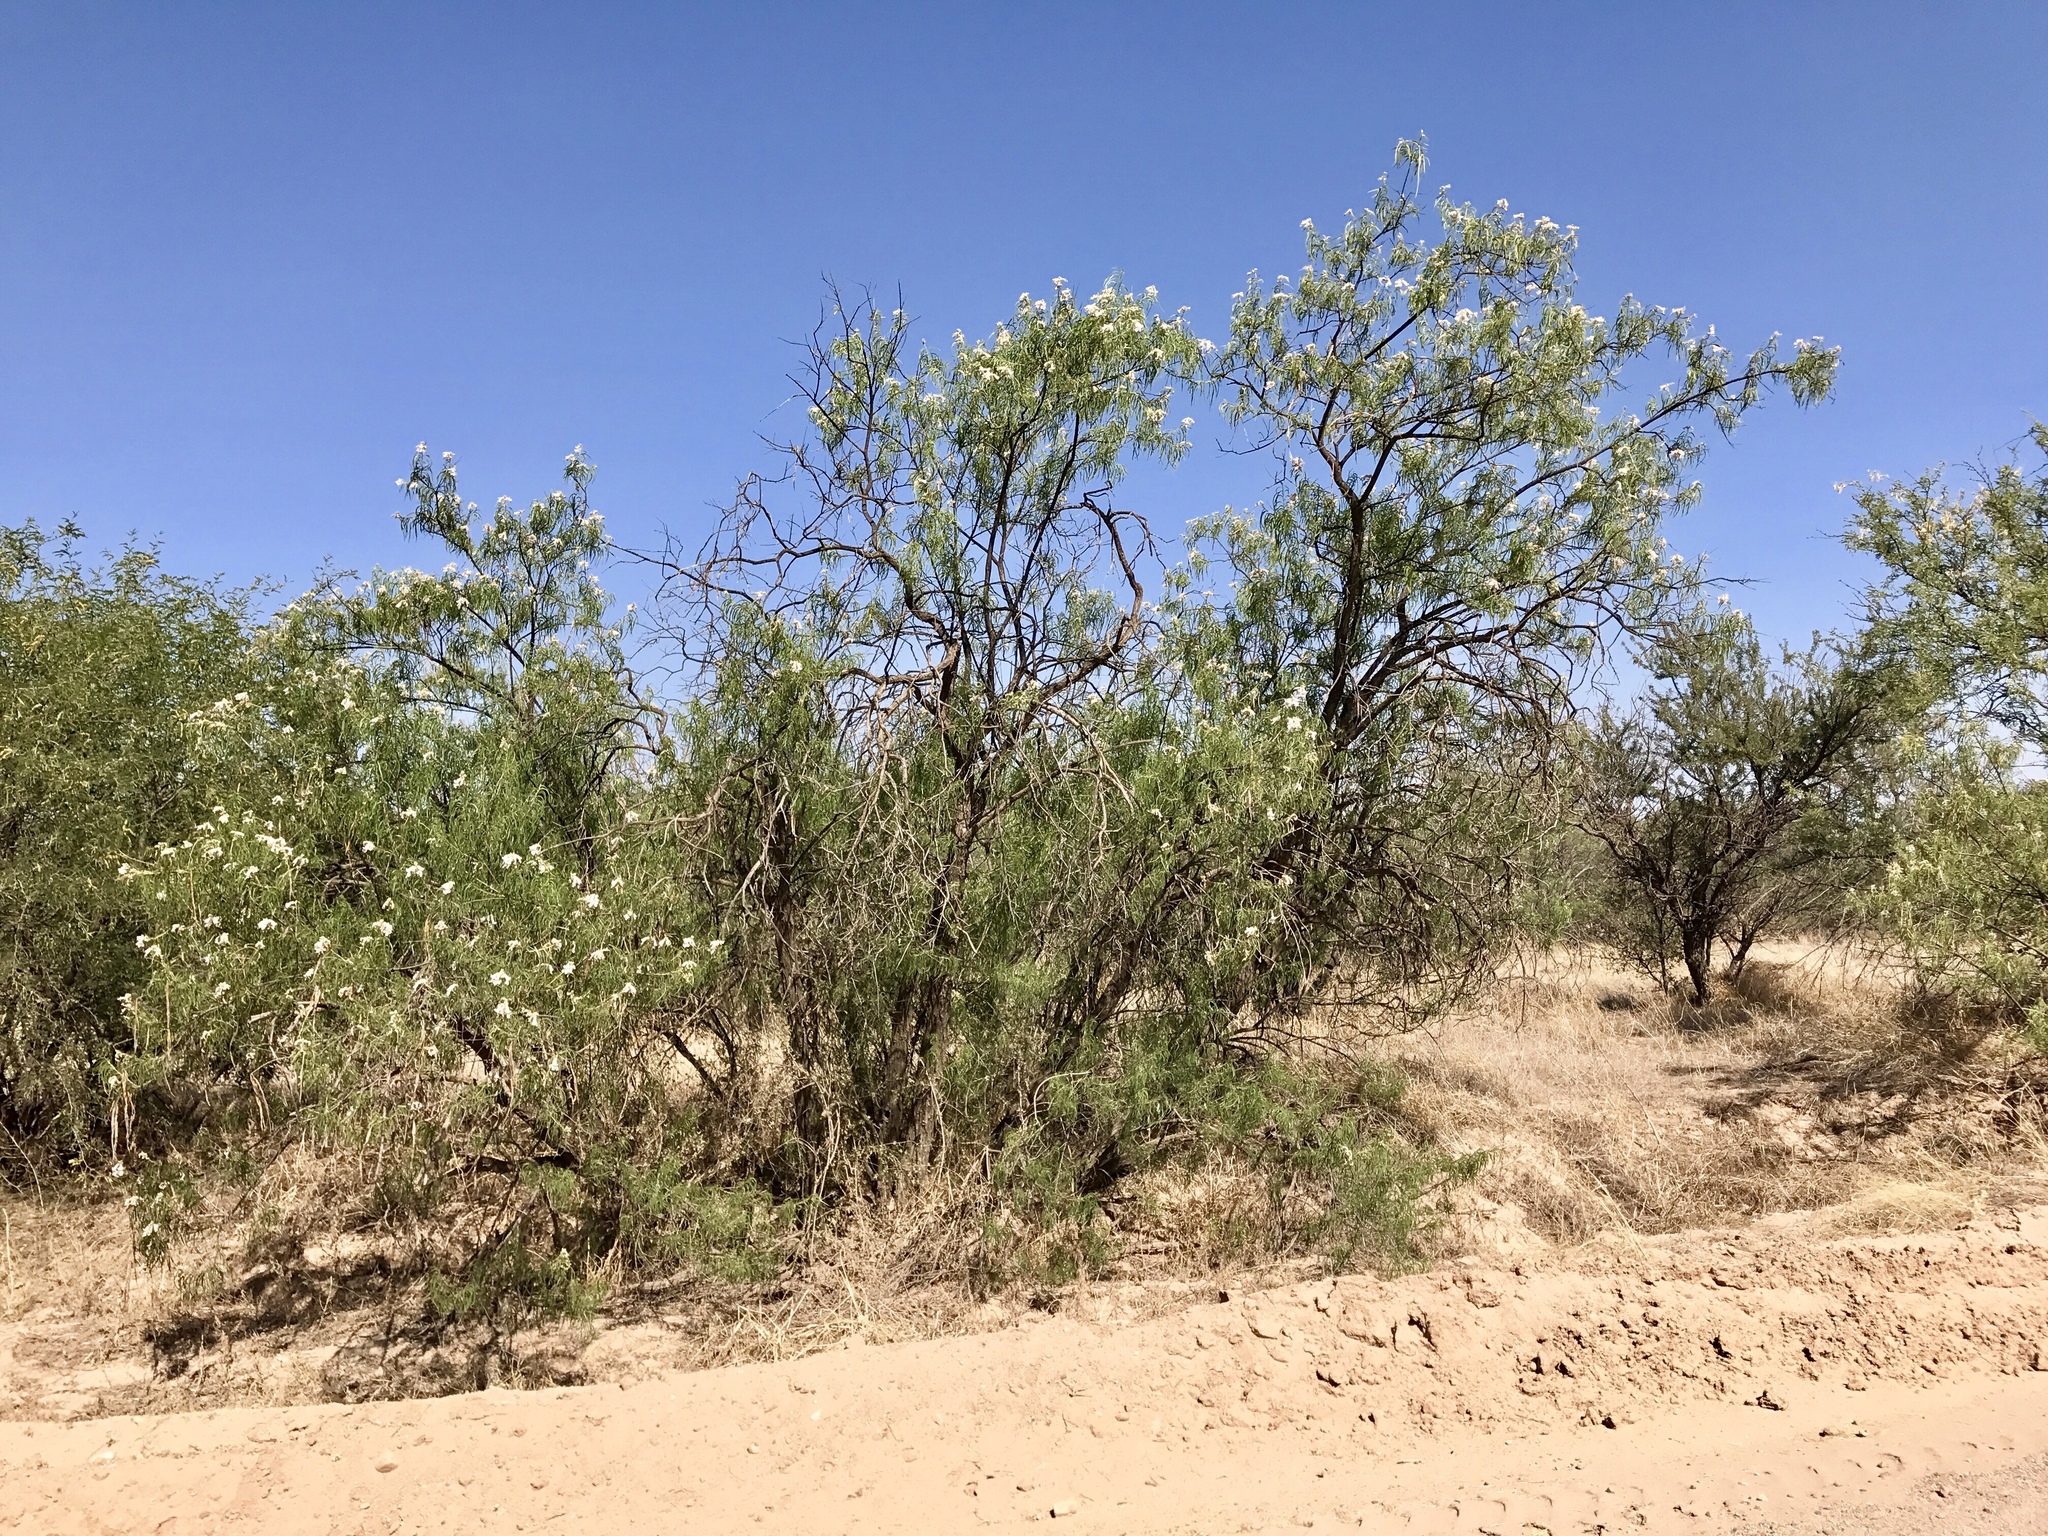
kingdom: Plantae
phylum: Tracheophyta
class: Magnoliopsida
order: Lamiales
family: Bignoniaceae
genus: Chilopsis
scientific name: Chilopsis linearis
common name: Desert-willow
